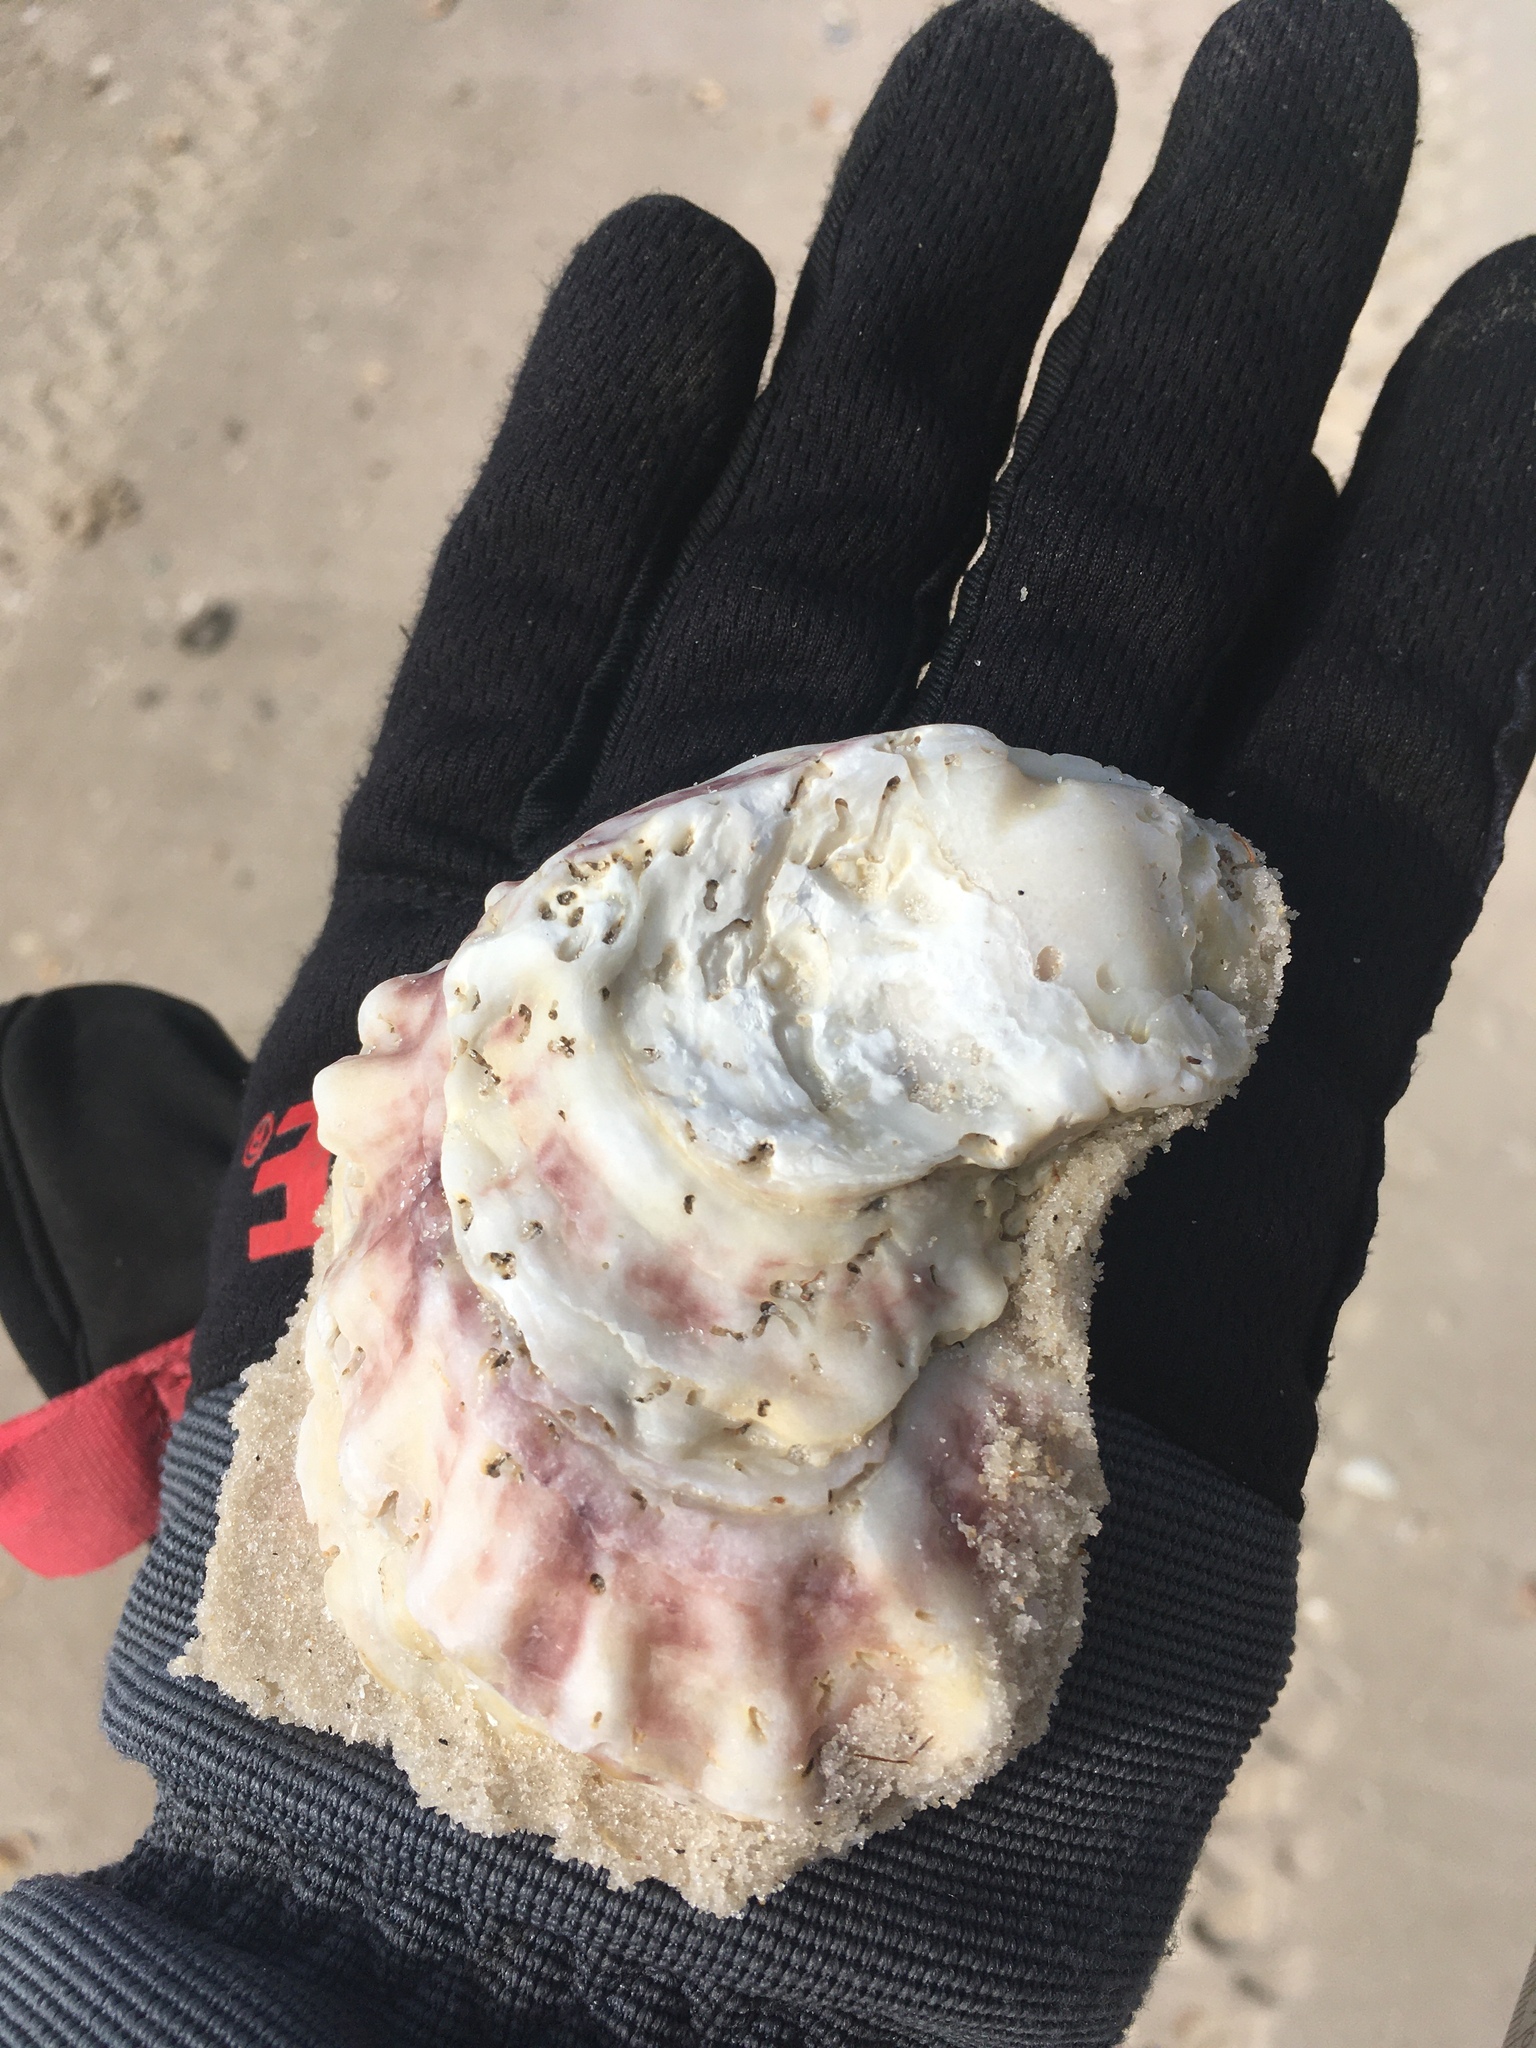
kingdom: Animalia
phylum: Mollusca
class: Bivalvia
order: Ostreida
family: Ostreidae
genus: Crassostrea
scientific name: Crassostrea virginica
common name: American oyster
